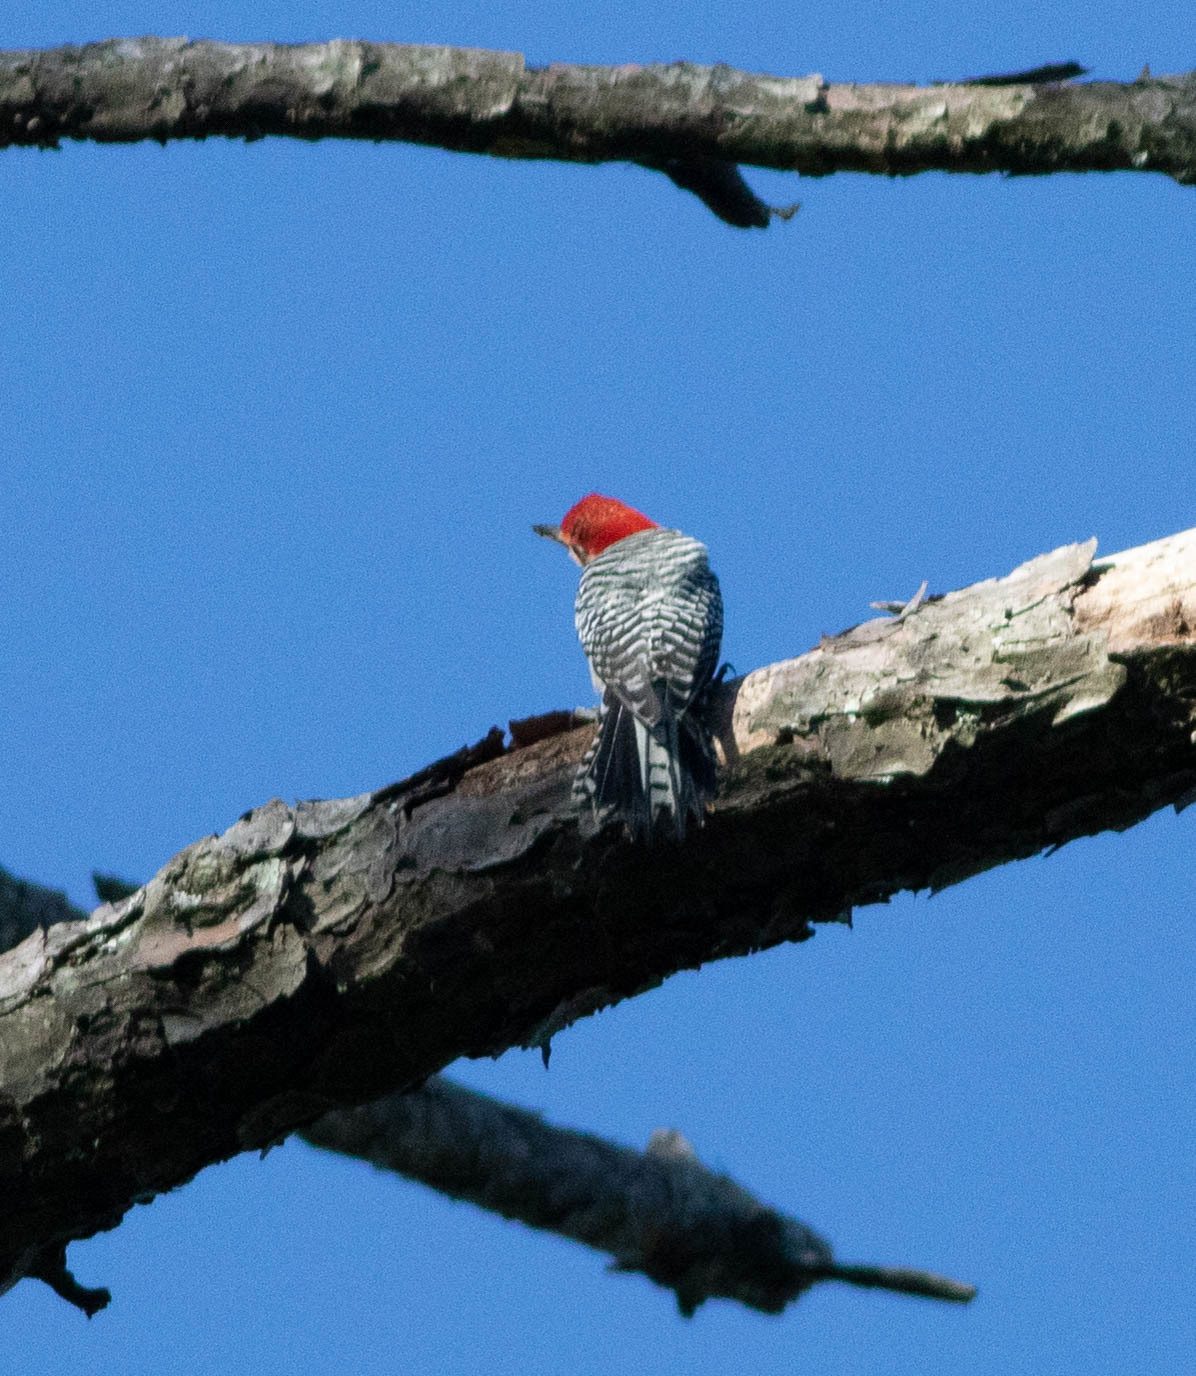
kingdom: Animalia
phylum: Chordata
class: Aves
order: Piciformes
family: Picidae
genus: Melanerpes
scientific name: Melanerpes carolinus
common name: Red-bellied woodpecker
